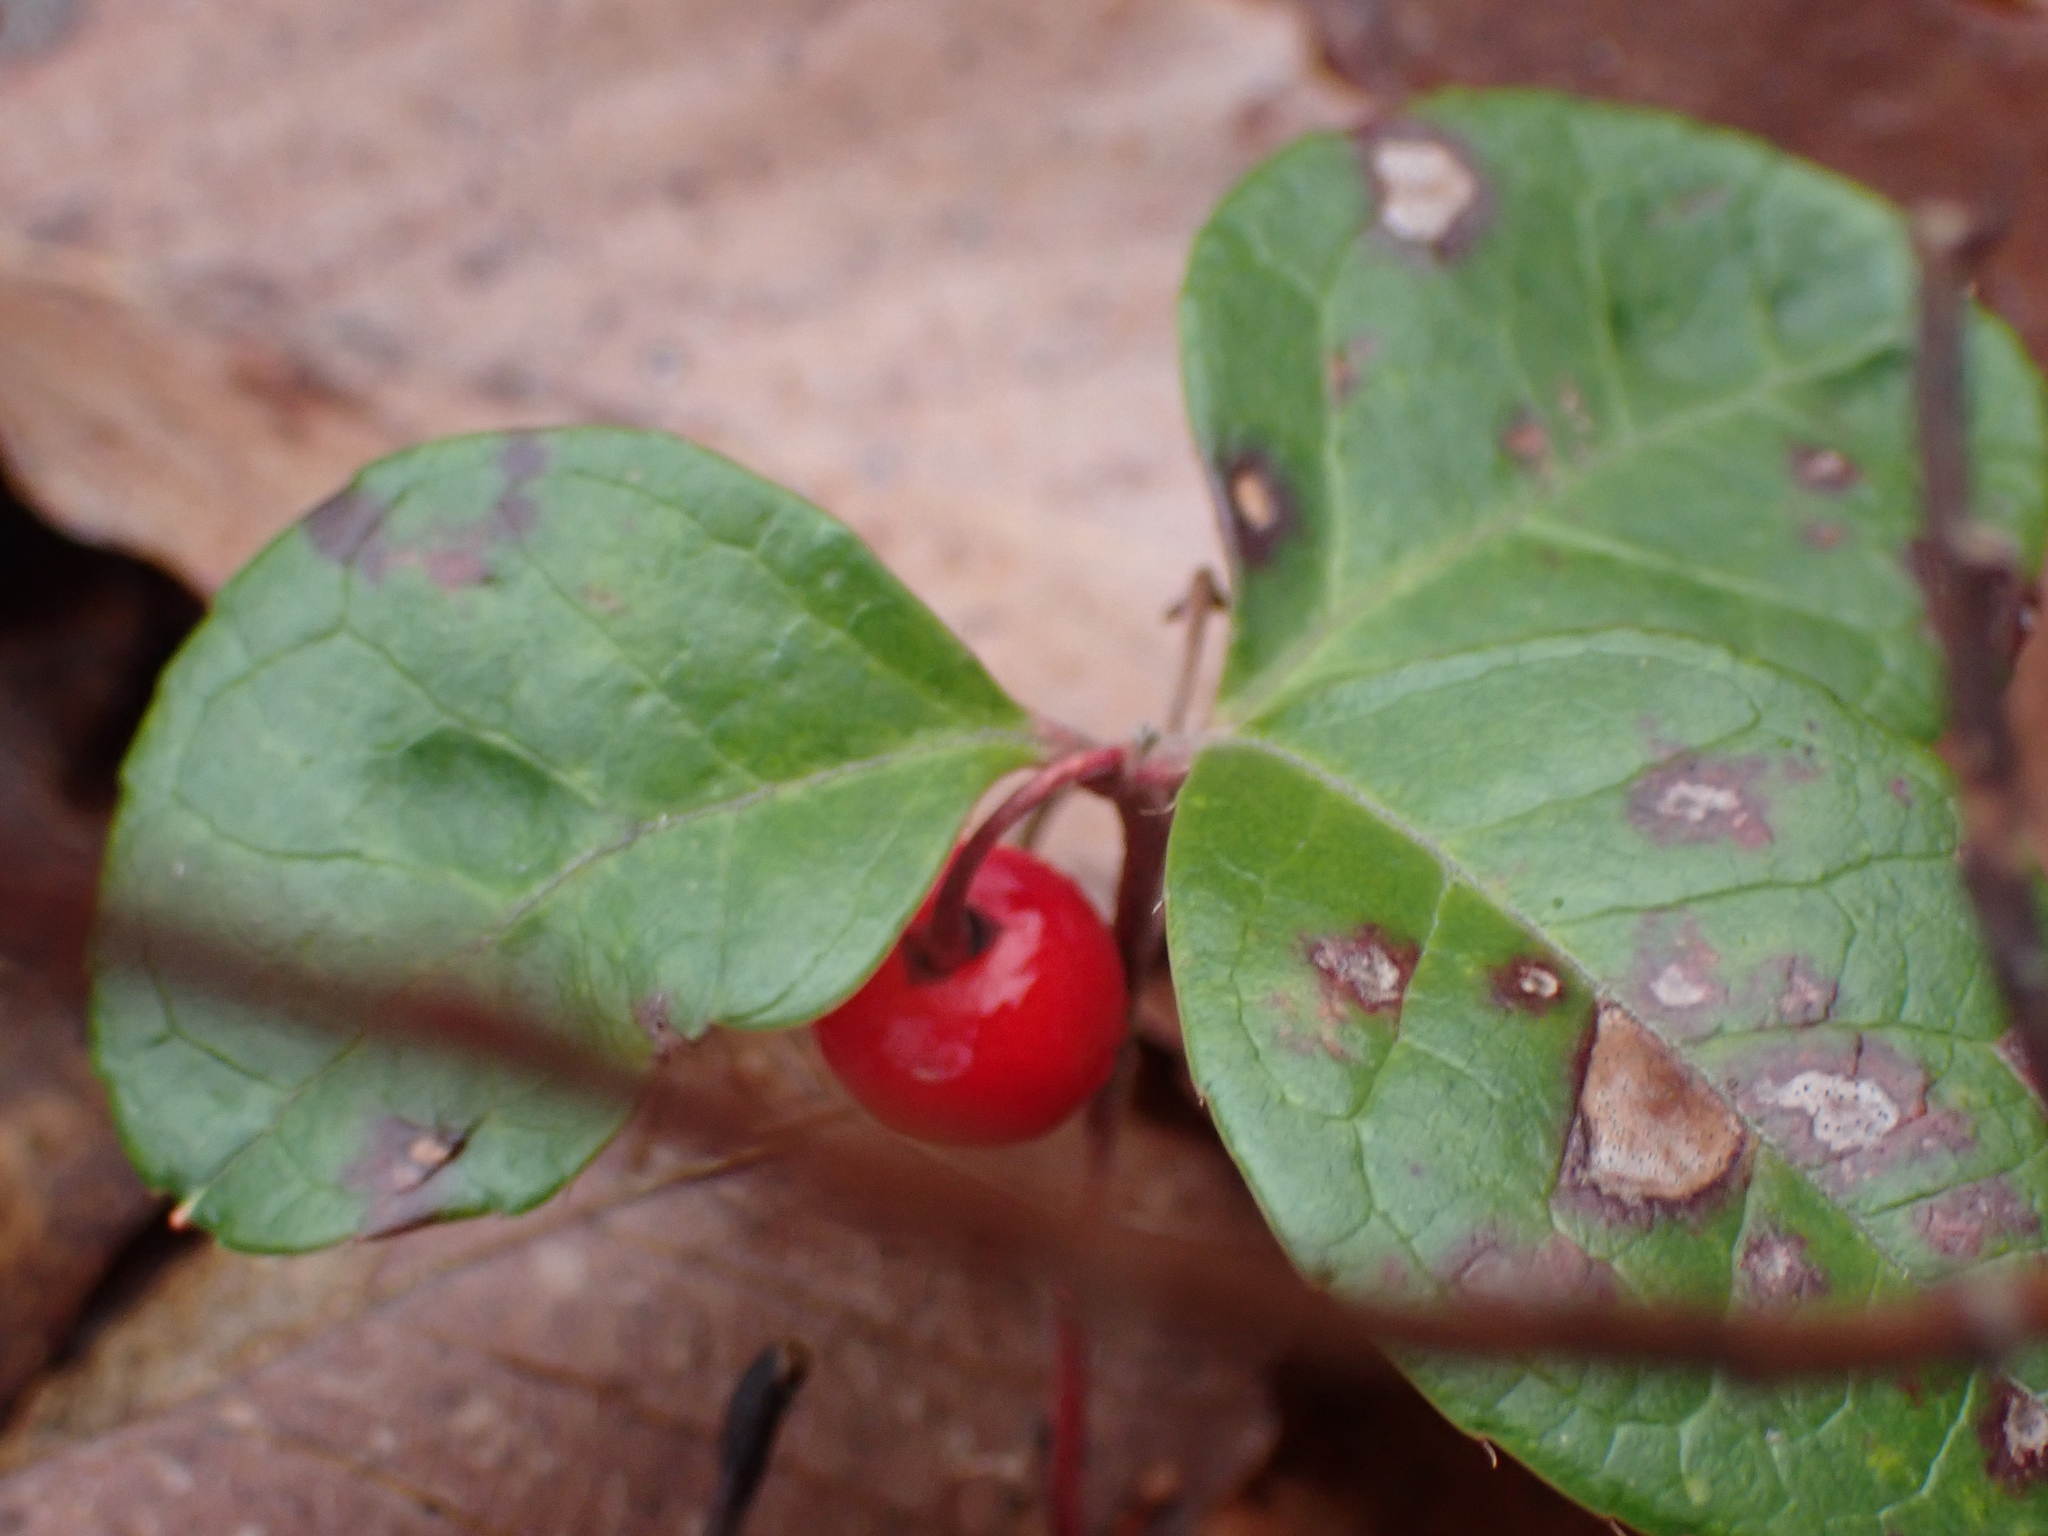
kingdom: Plantae
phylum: Tracheophyta
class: Magnoliopsida
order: Ericales
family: Ericaceae
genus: Gaultheria
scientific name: Gaultheria procumbens
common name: Checkerberry
